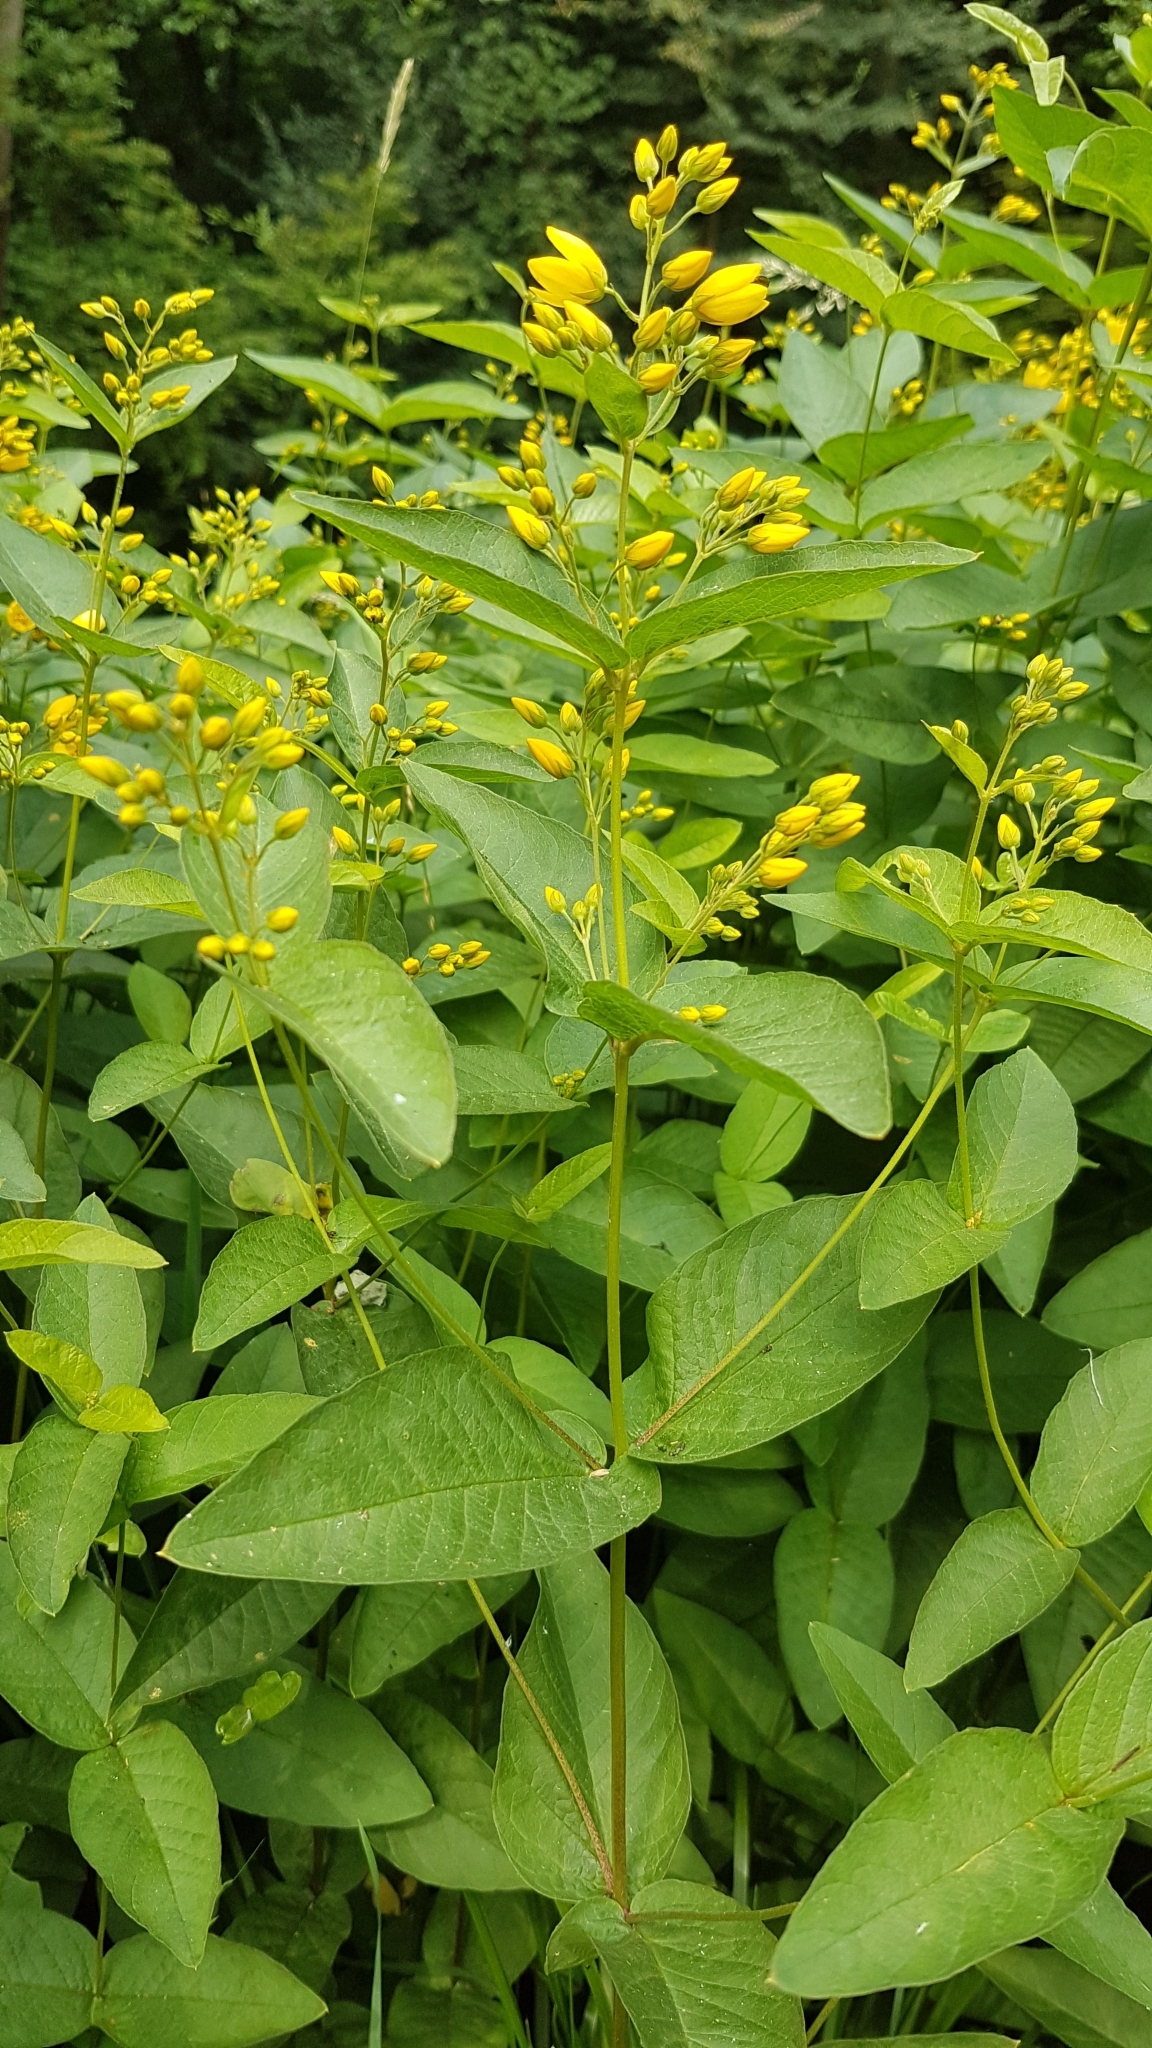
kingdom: Plantae
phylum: Tracheophyta
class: Magnoliopsida
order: Ericales
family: Primulaceae
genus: Lysimachia
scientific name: Lysimachia vulgaris
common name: Yellow loosestrife
